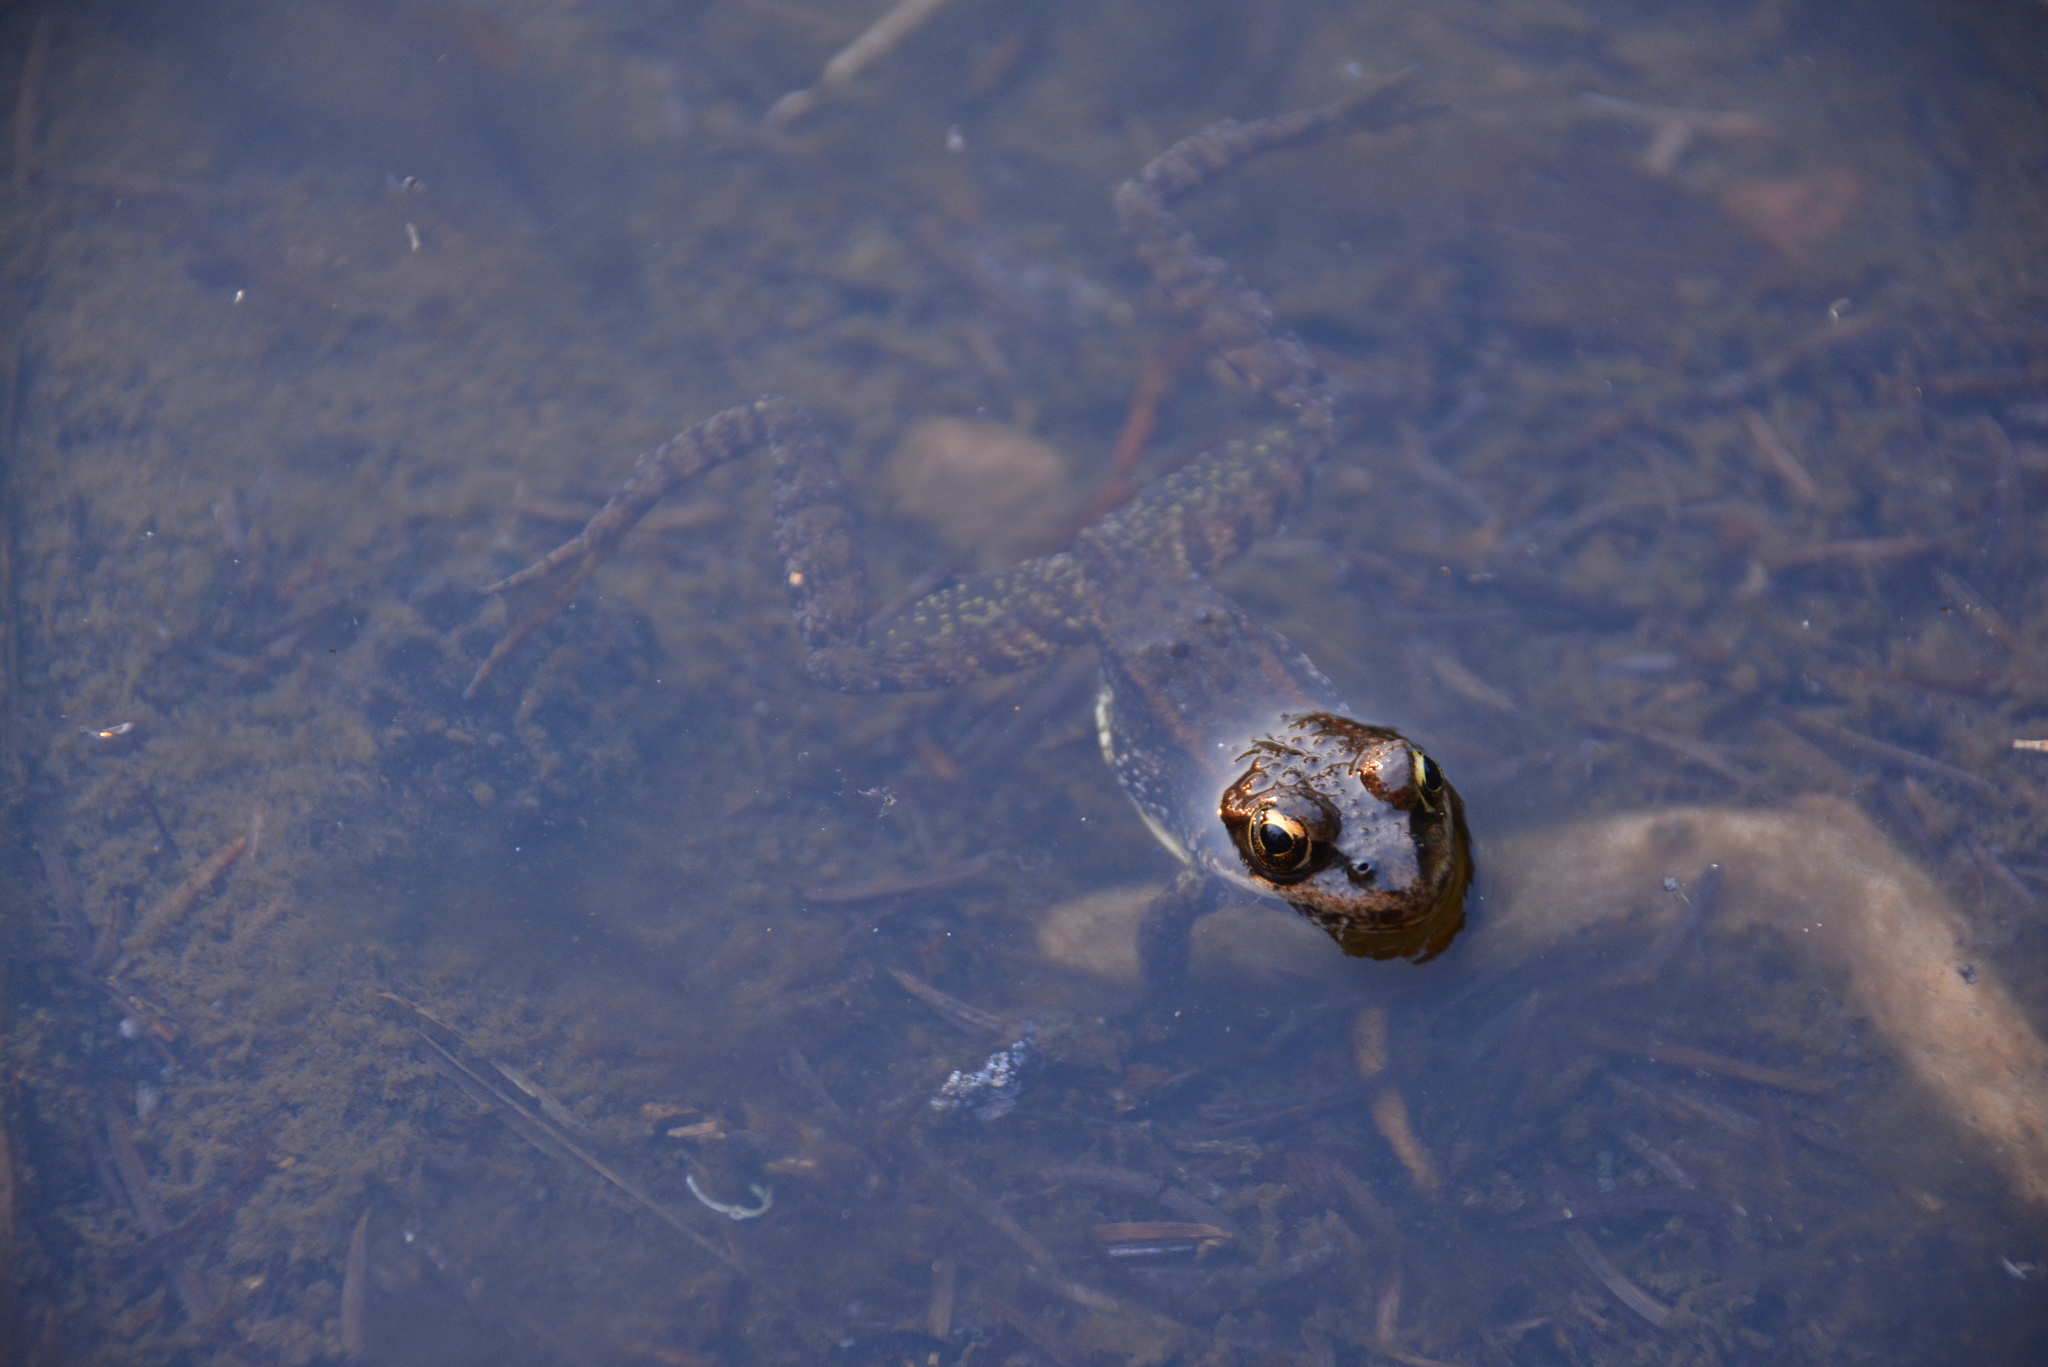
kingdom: Animalia
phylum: Chordata
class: Amphibia
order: Anura
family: Ranidae
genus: Rana
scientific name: Rana cascadae
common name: Cascades frog
